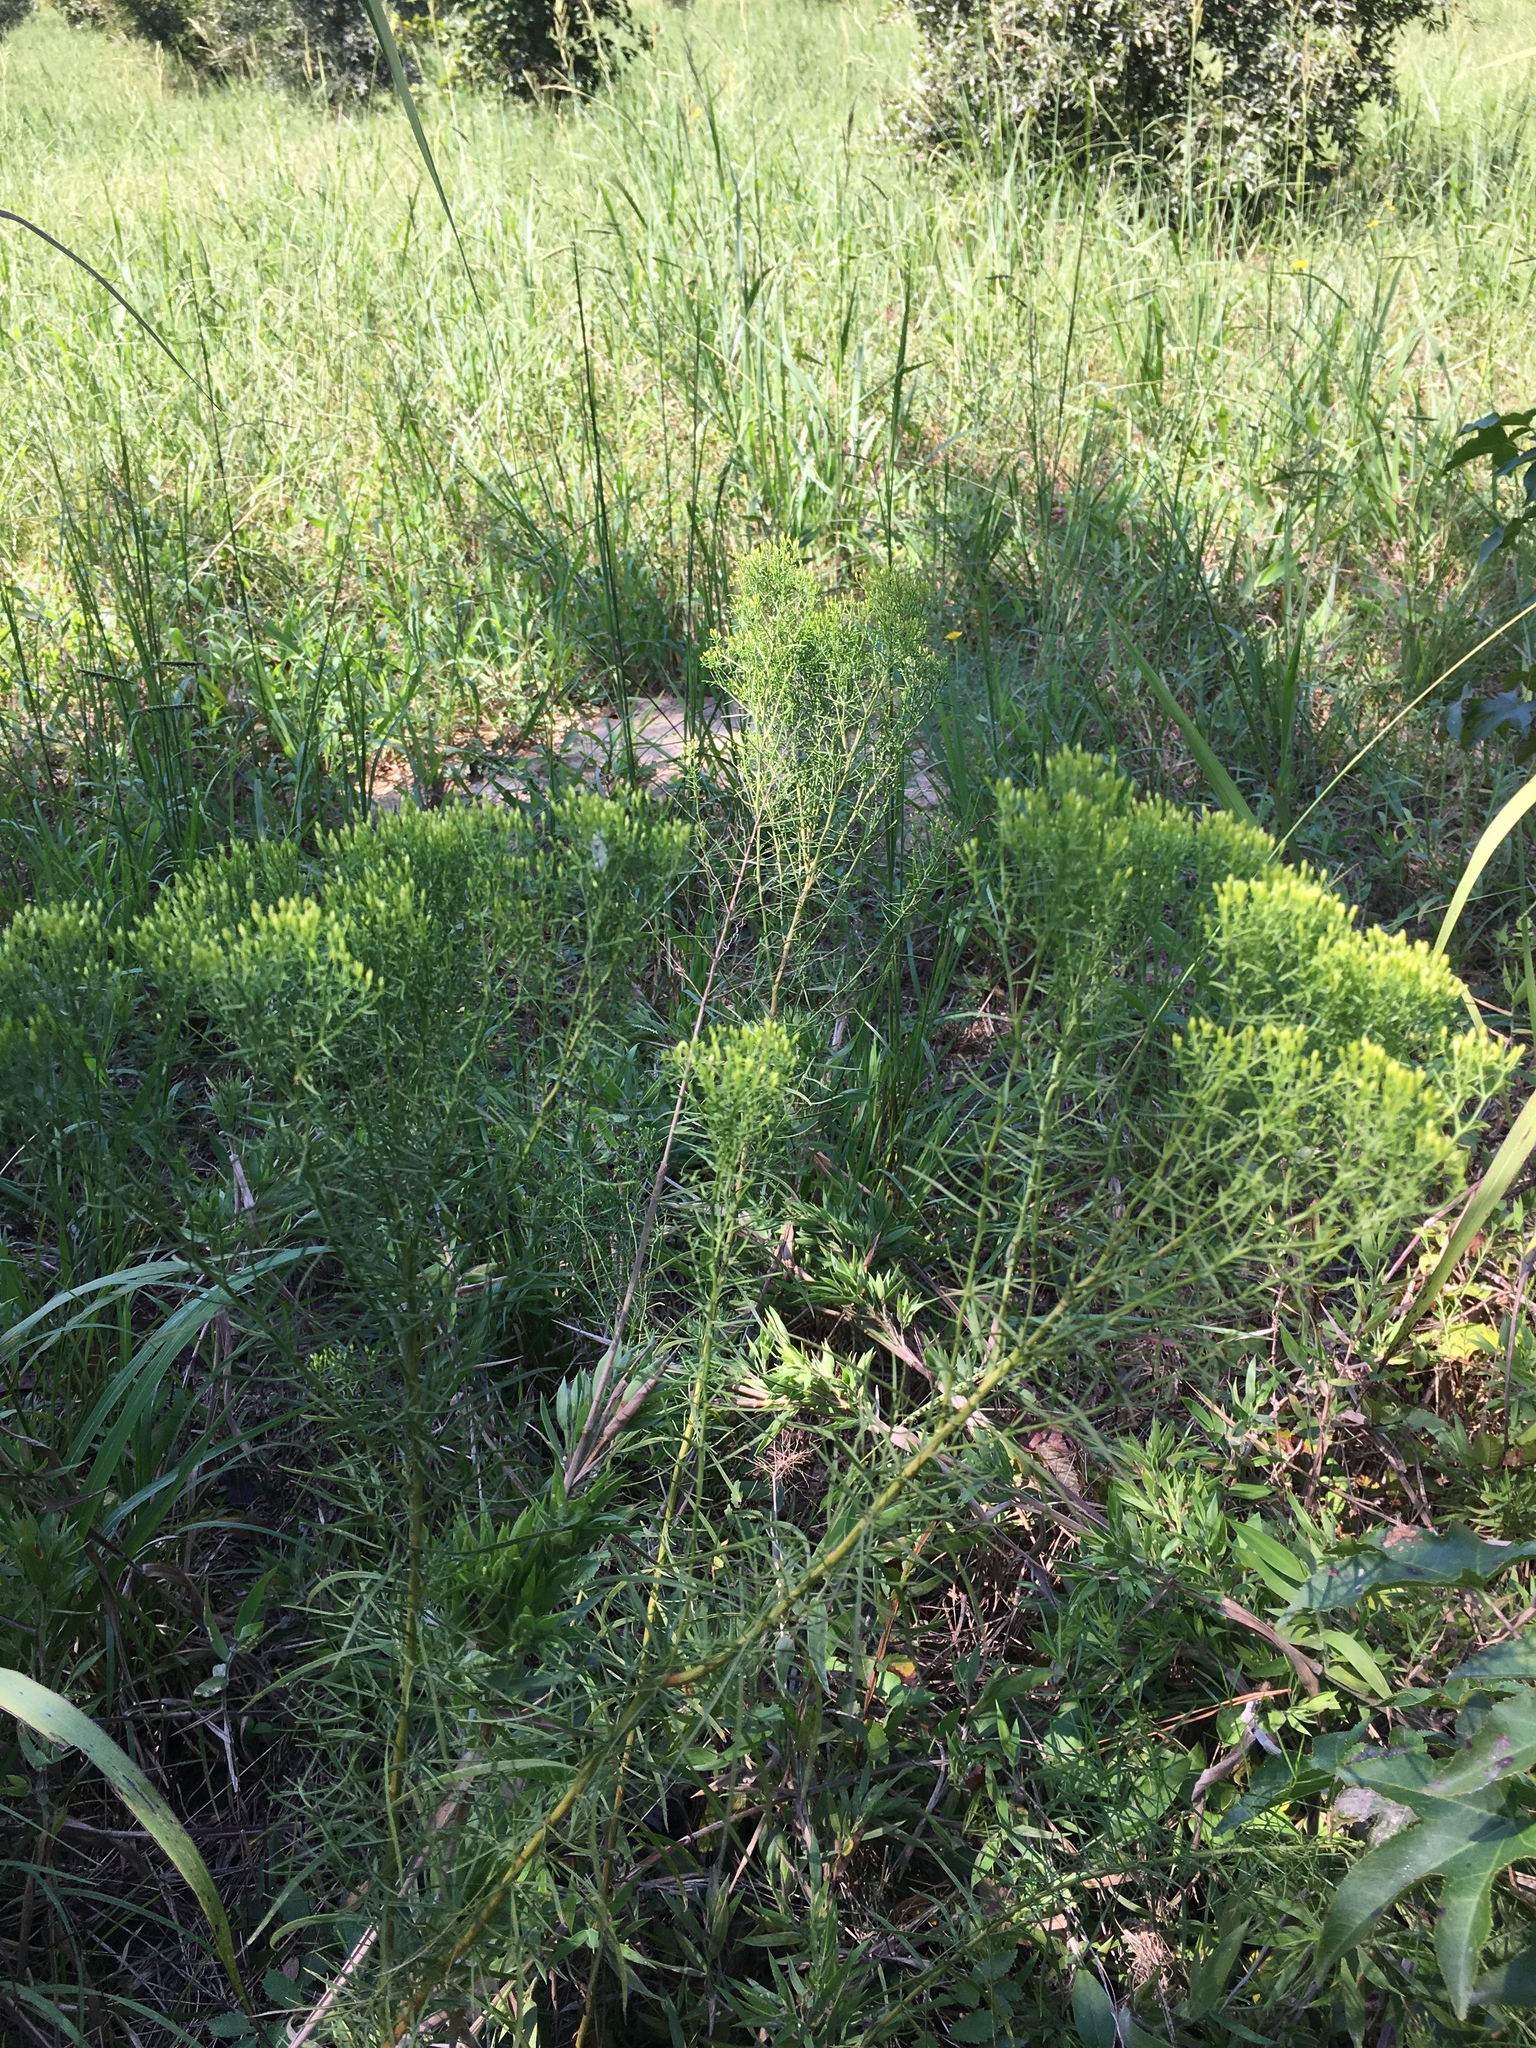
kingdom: Plantae
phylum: Tracheophyta
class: Magnoliopsida
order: Asterales
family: Asteraceae
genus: Euthamia
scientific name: Euthamia caroliniana
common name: Coastal plain goldentop
